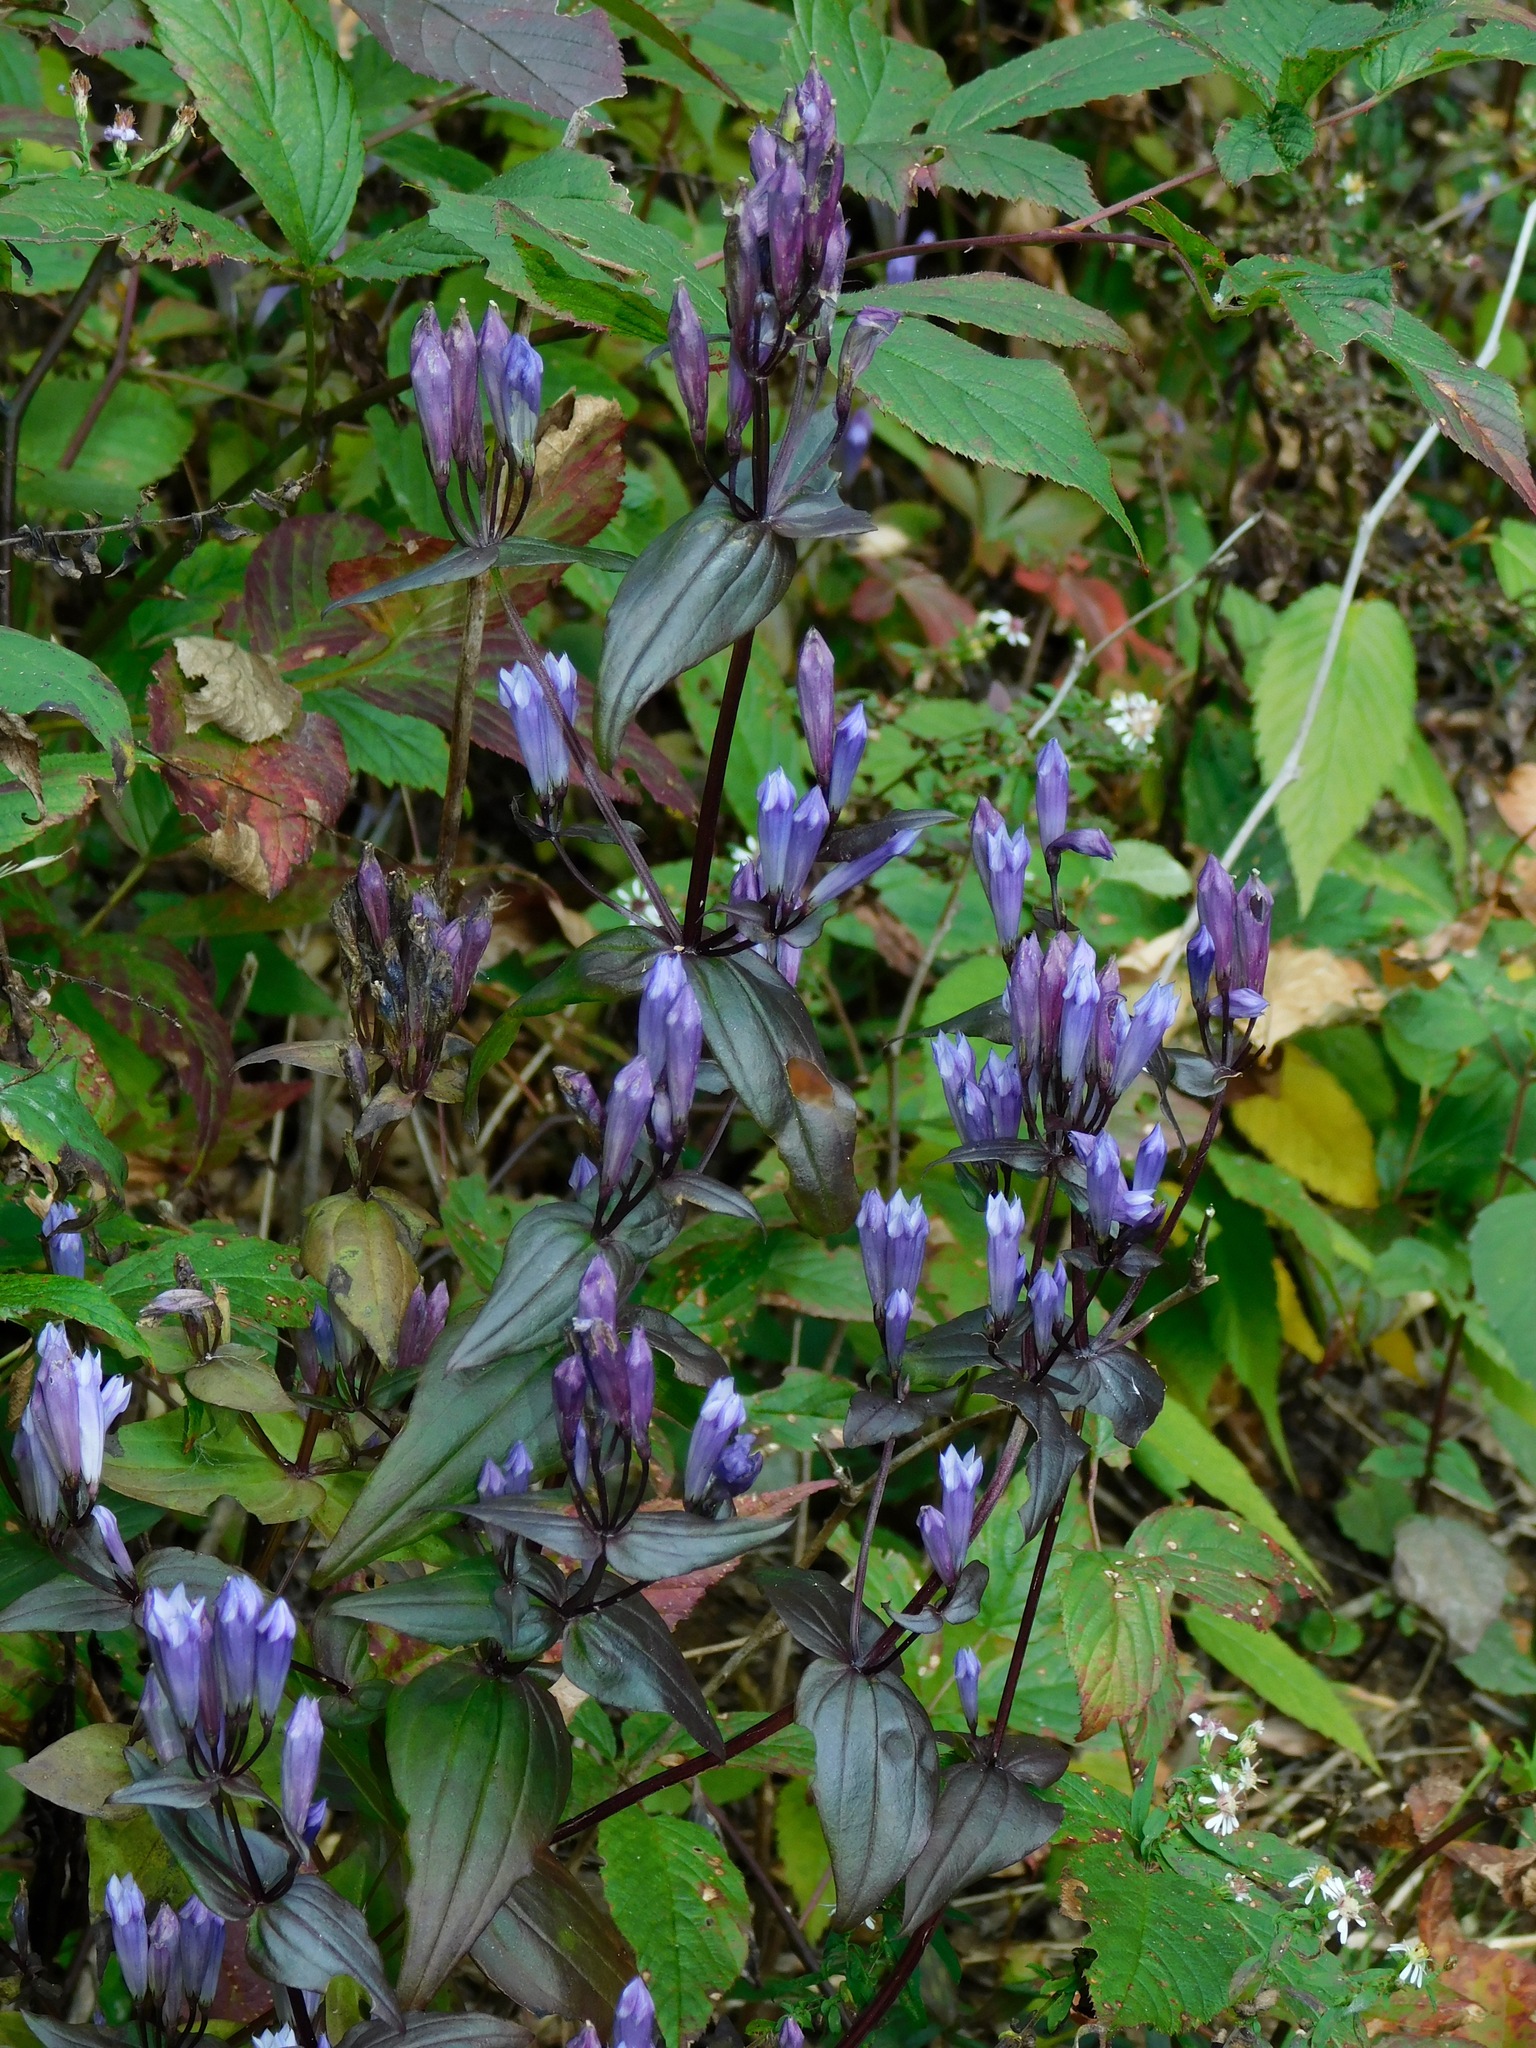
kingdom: Plantae
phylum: Tracheophyta
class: Magnoliopsida
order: Gentianales
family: Gentianaceae
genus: Gentianella
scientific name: Gentianella quinquefolia
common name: Agueweed
